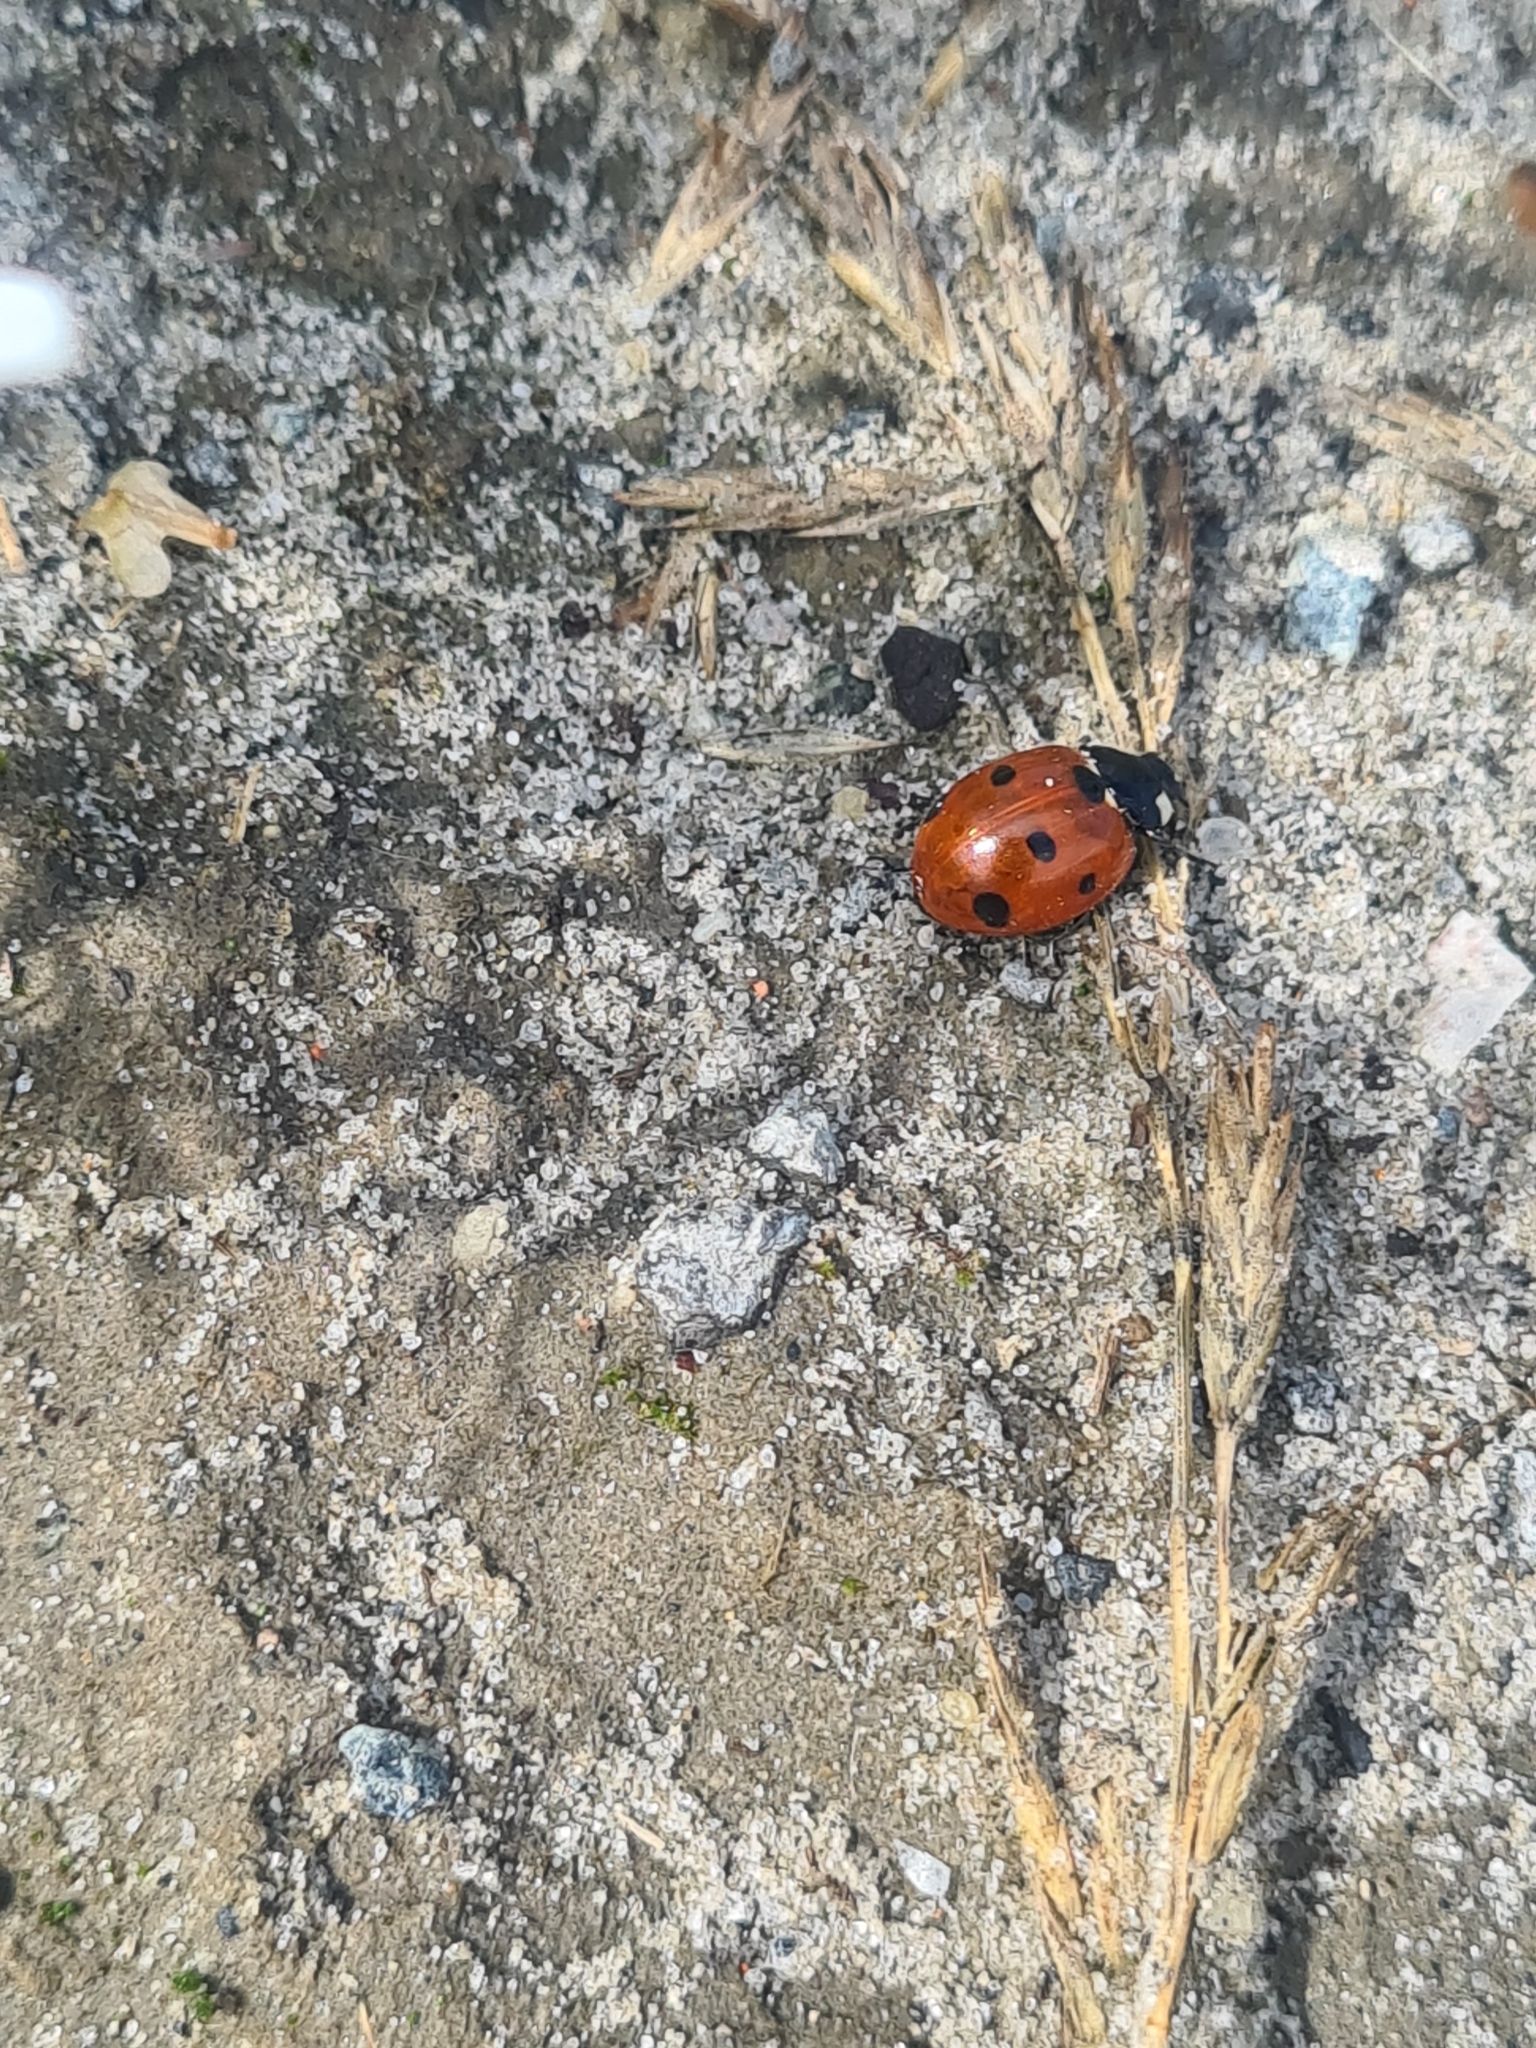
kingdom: Animalia
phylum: Arthropoda
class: Insecta
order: Coleoptera
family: Coccinellidae
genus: Coccinella
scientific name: Coccinella septempunctata
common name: Sevenspotted lady beetle
